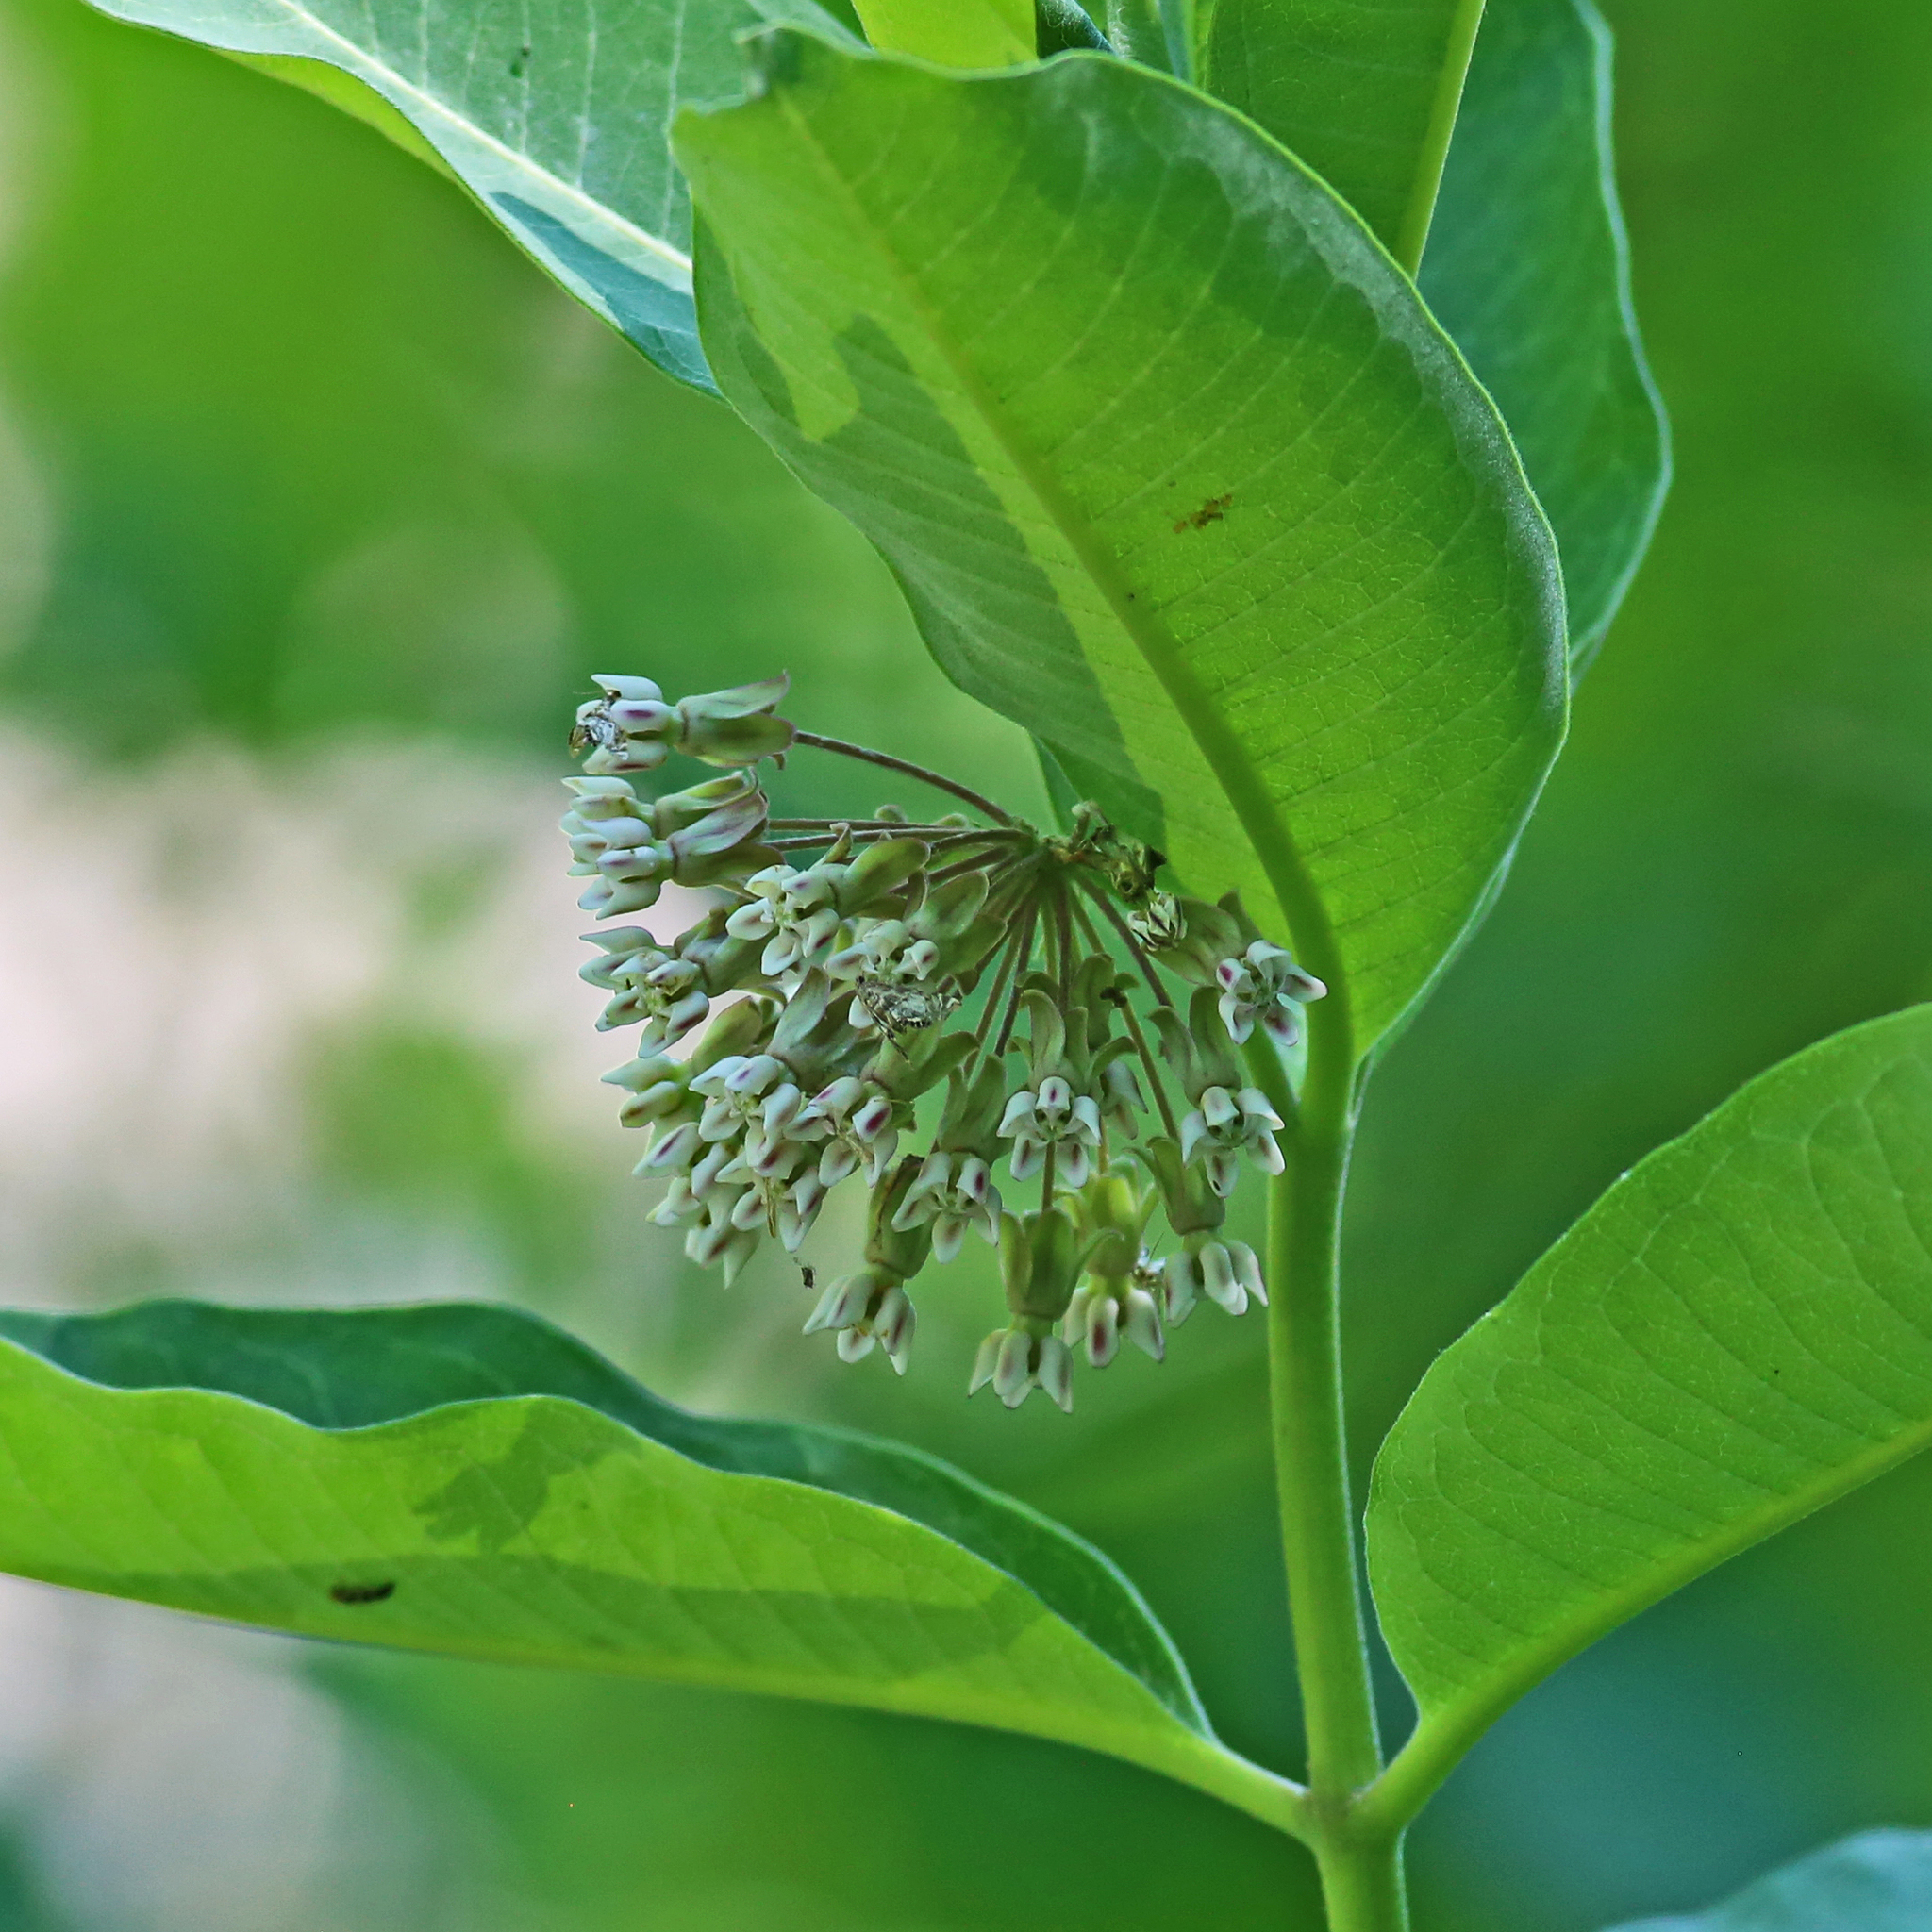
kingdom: Plantae
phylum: Tracheophyta
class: Magnoliopsida
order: Gentianales
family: Apocynaceae
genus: Asclepias
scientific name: Asclepias syriaca
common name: Common milkweed
